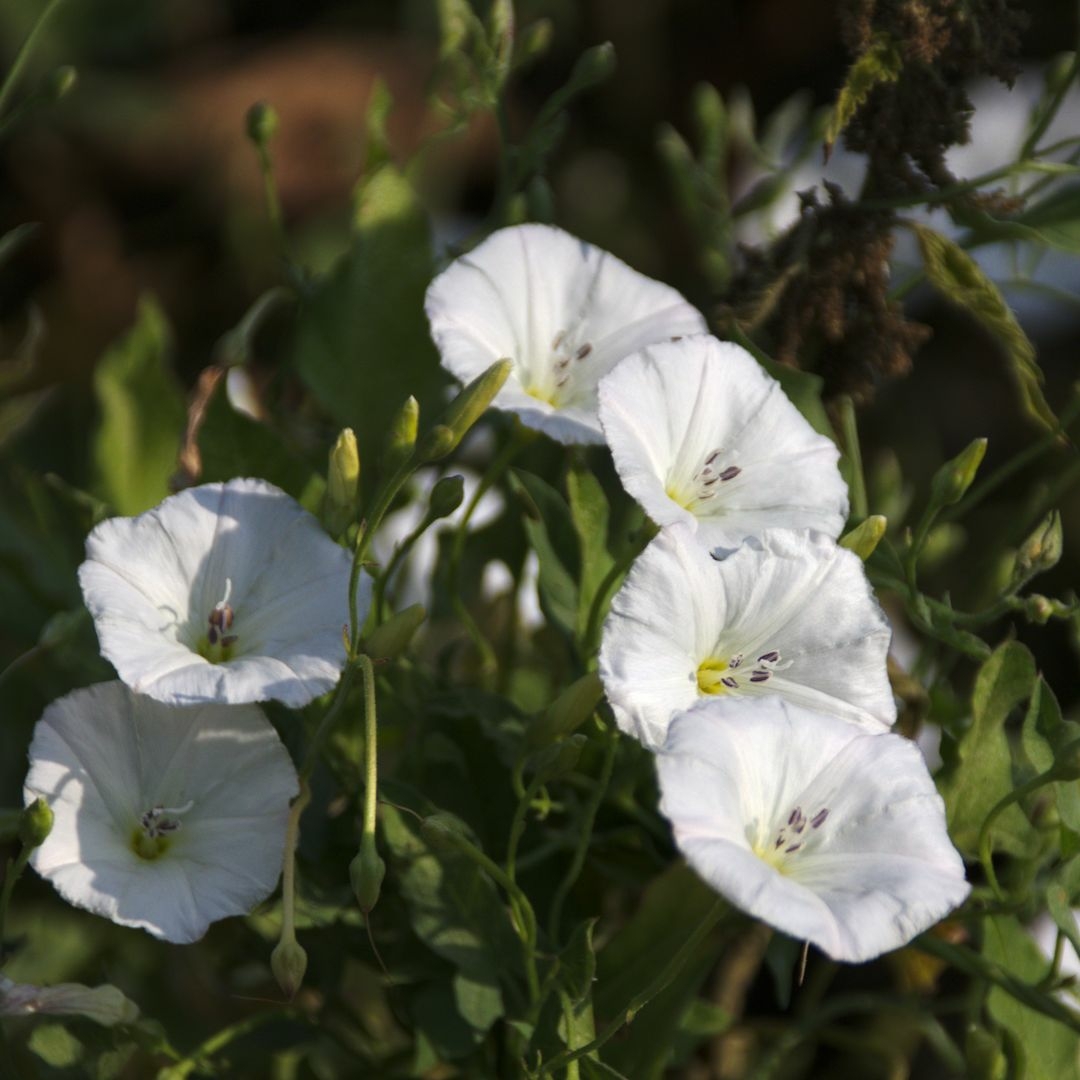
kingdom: Plantae
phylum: Tracheophyta
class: Magnoliopsida
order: Solanales
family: Convolvulaceae
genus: Convolvulus
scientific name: Convolvulus arvensis
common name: Field bindweed
